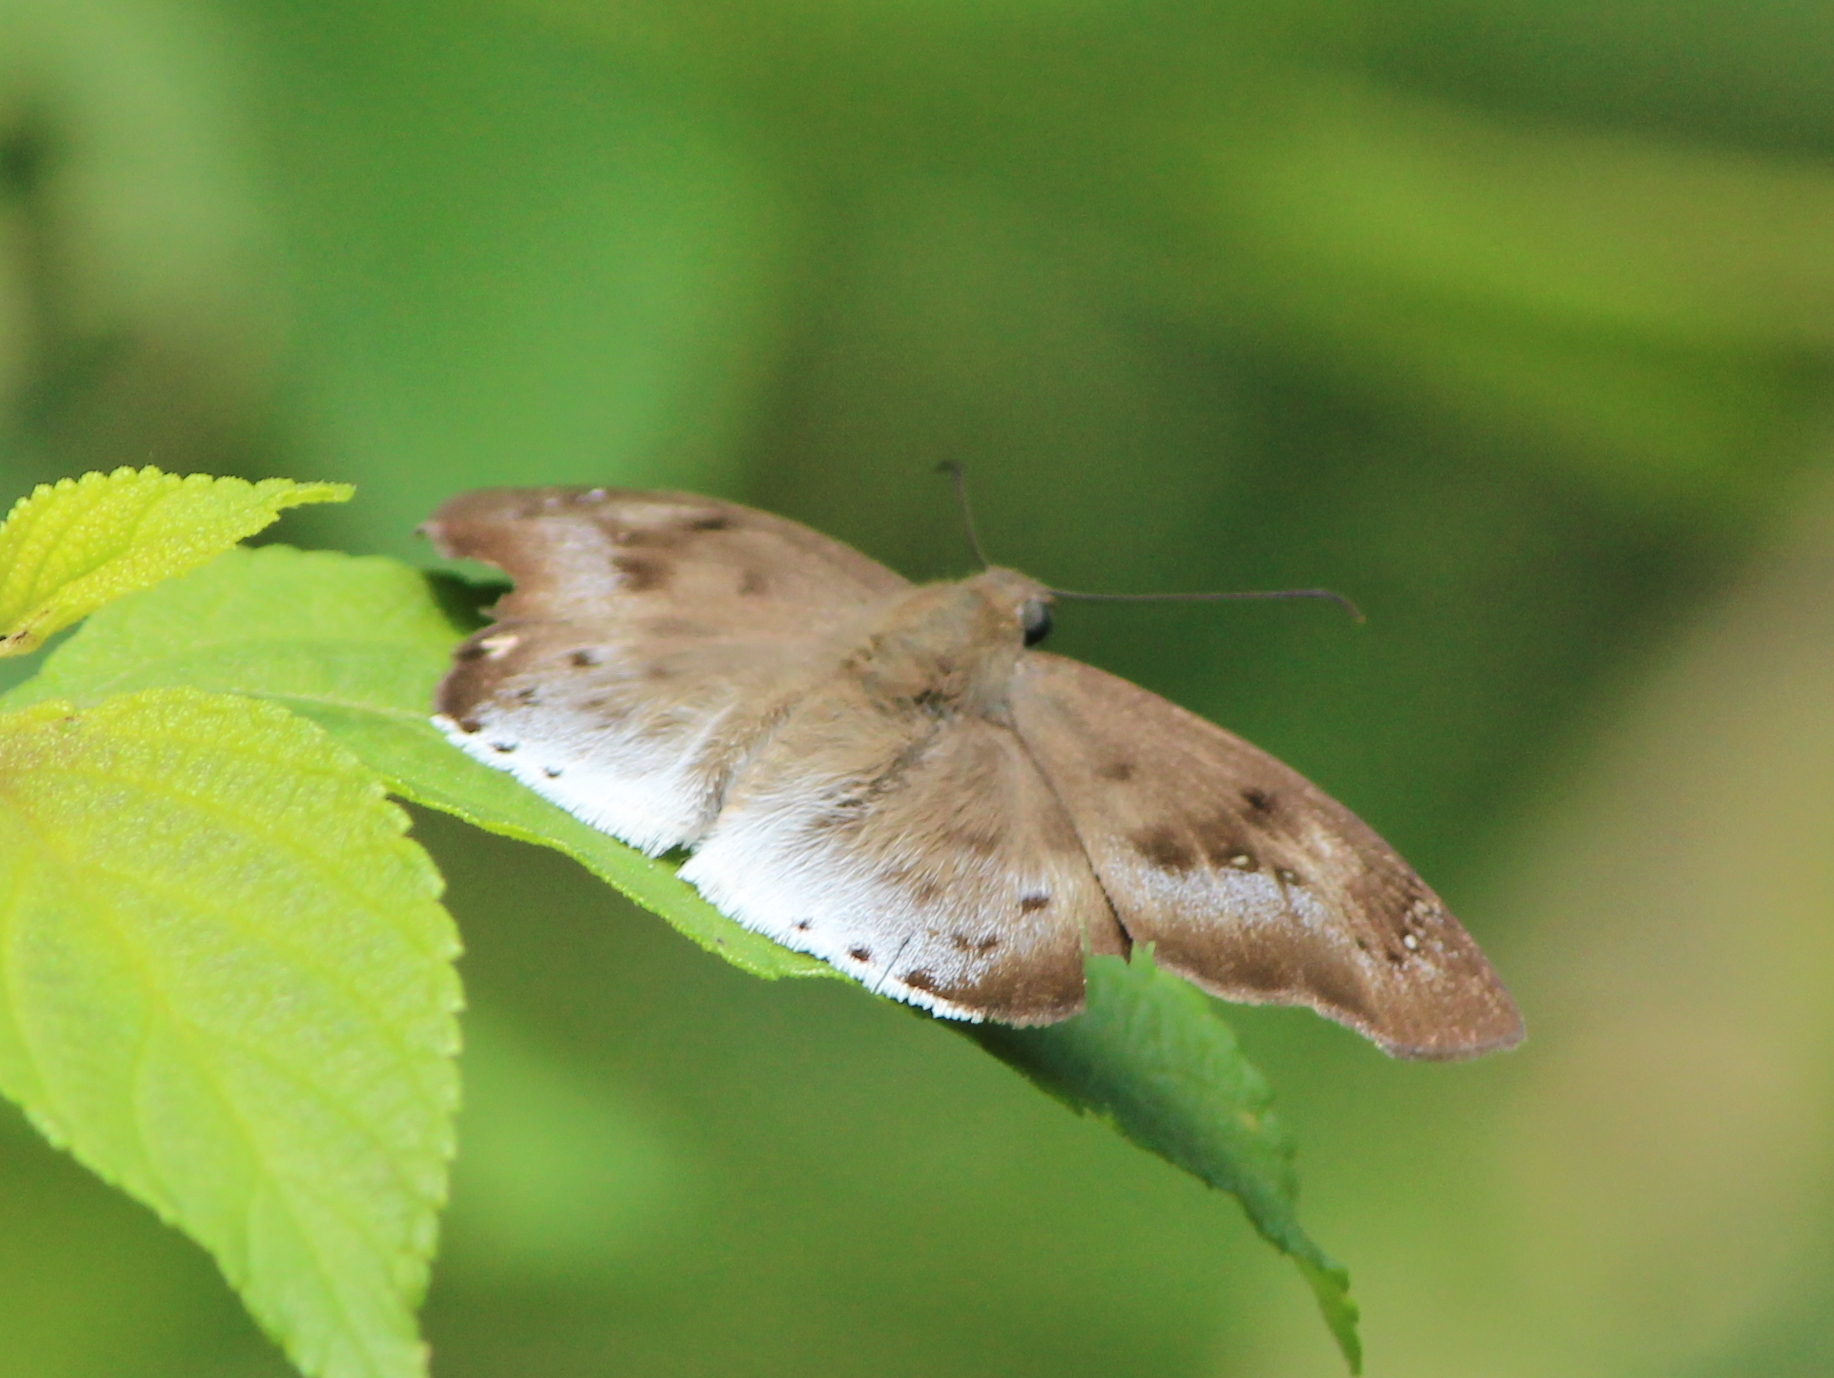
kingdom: Animalia
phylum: Arthropoda
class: Insecta
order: Lepidoptera
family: Hesperiidae
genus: Tagiades
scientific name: Tagiades japetus
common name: Pied flat
